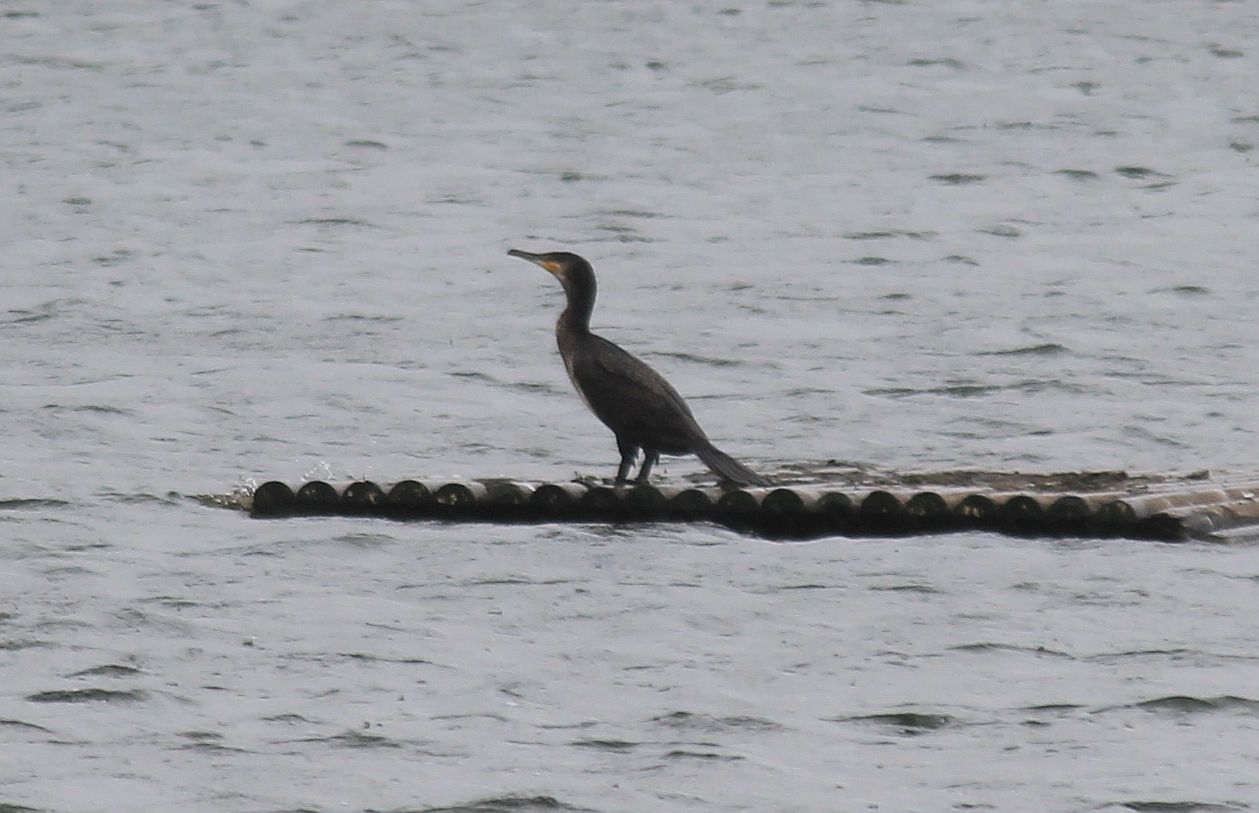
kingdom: Animalia
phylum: Chordata
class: Aves
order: Suliformes
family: Phalacrocoracidae
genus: Phalacrocorax
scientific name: Phalacrocorax carbo
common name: Great cormorant
